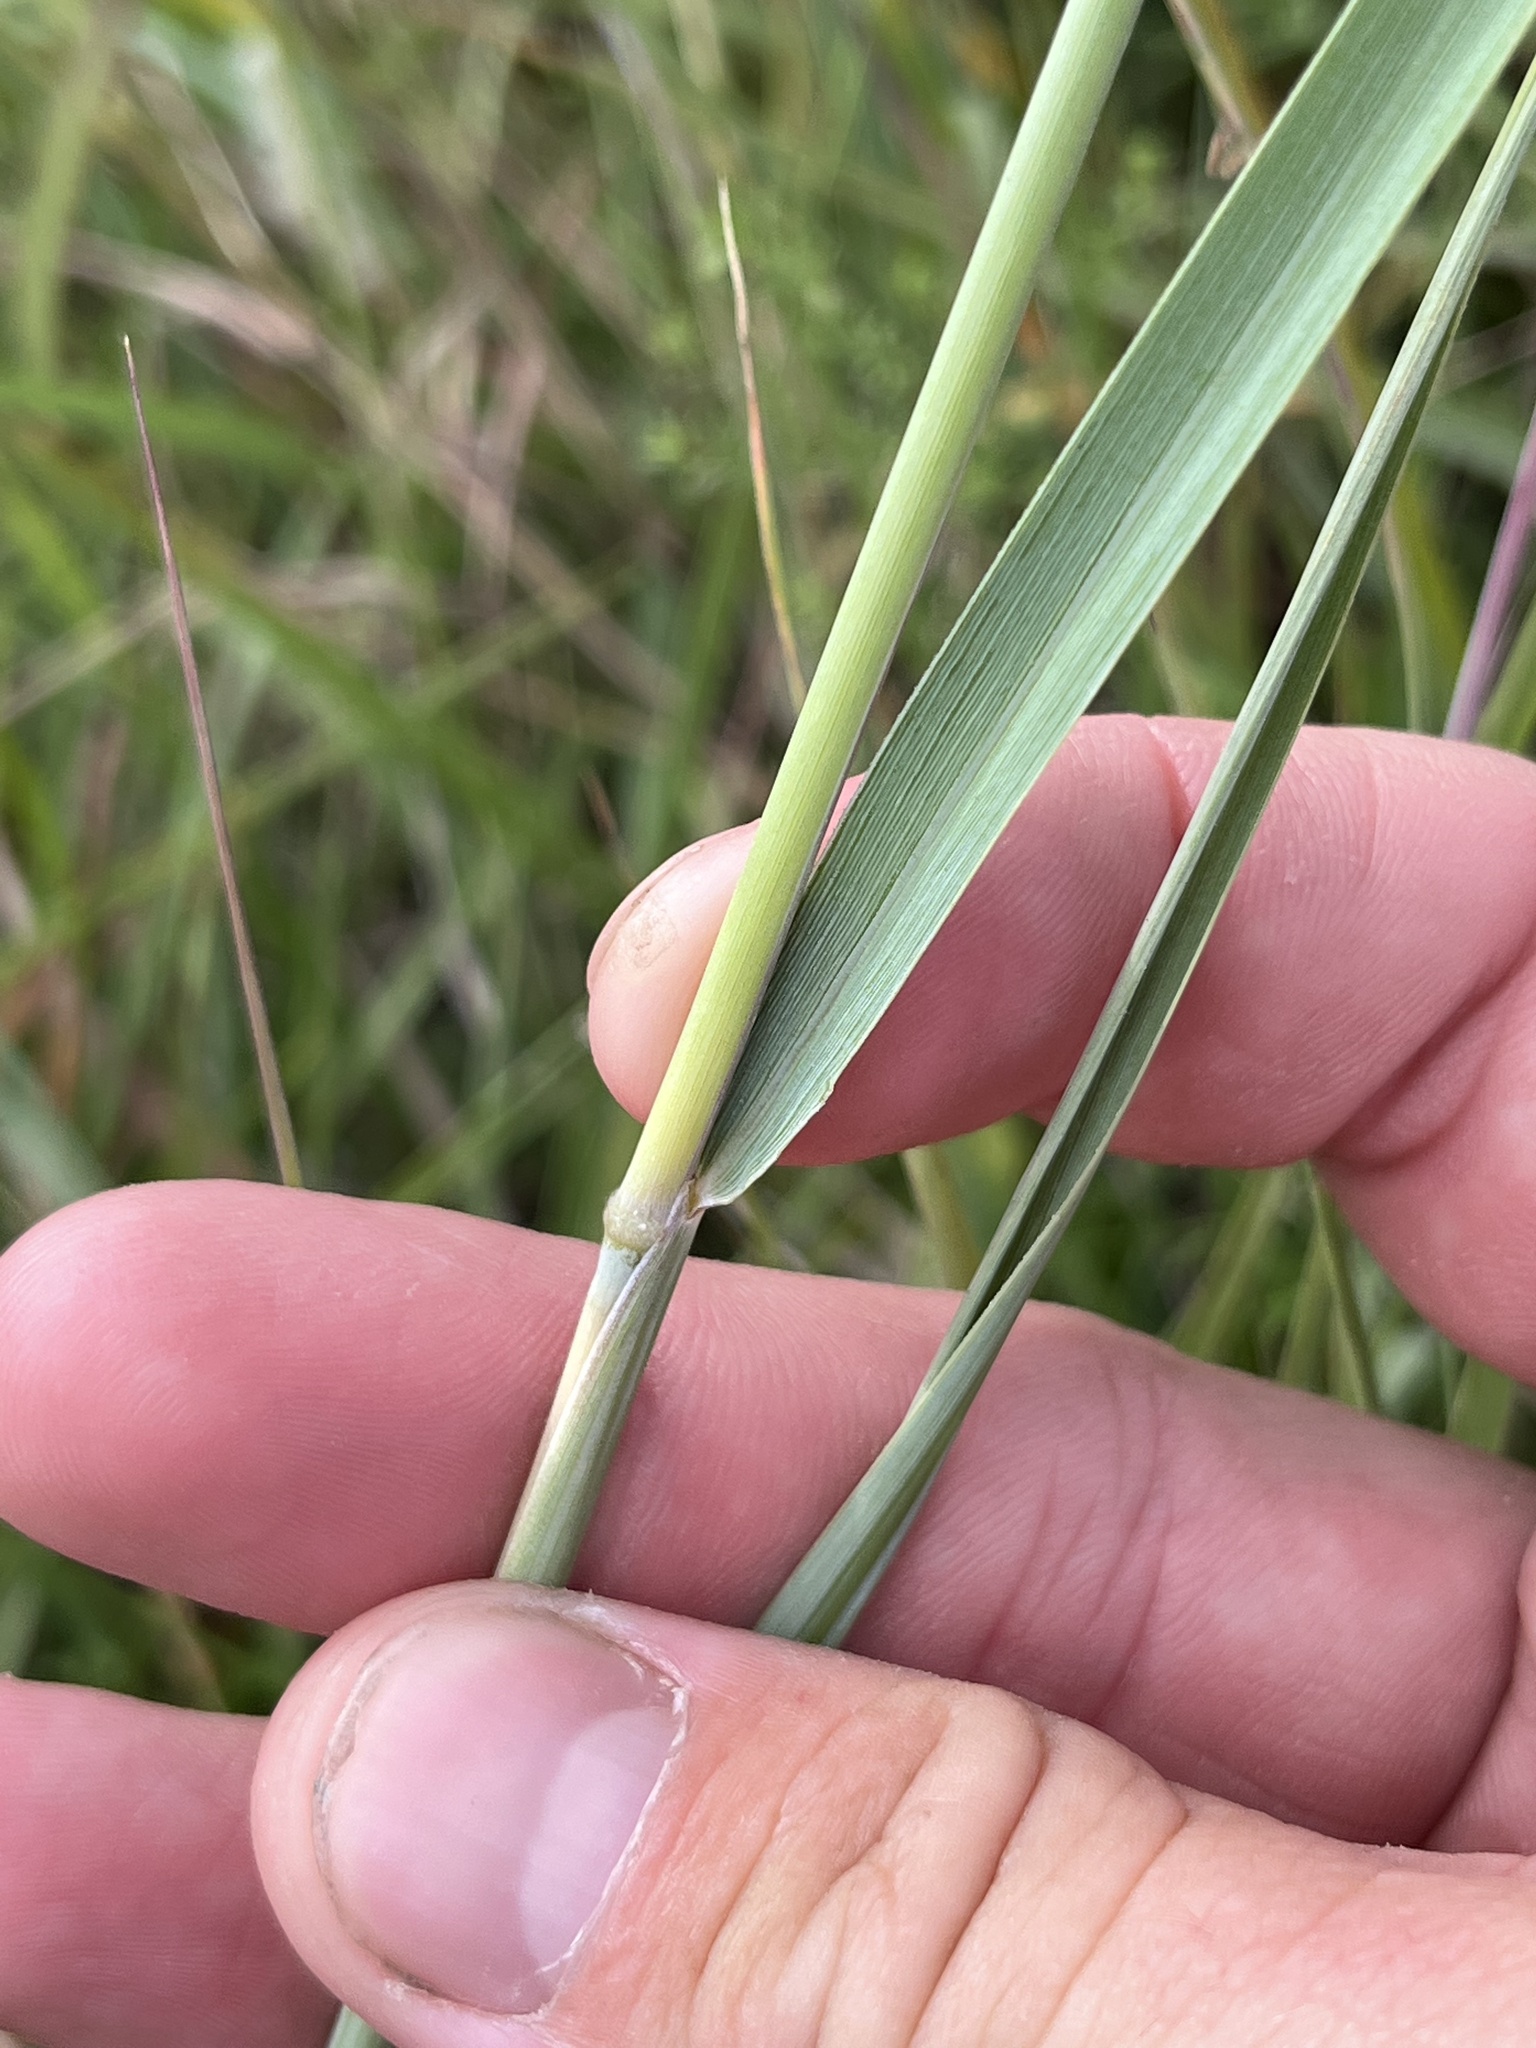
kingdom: Plantae
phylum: Tracheophyta
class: Liliopsida
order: Poales
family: Poaceae
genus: Sorghastrum
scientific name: Sorghastrum nutans
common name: Indian grass
